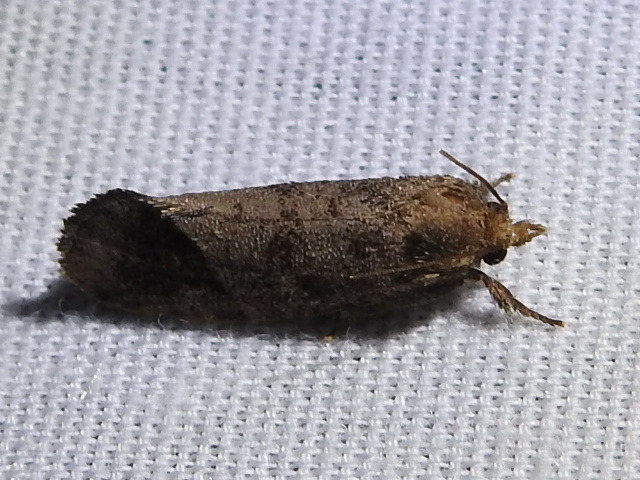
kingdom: Animalia
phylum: Arthropoda
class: Insecta
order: Lepidoptera
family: Tineidae
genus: Acrolophus
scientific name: Acrolophus texanella
